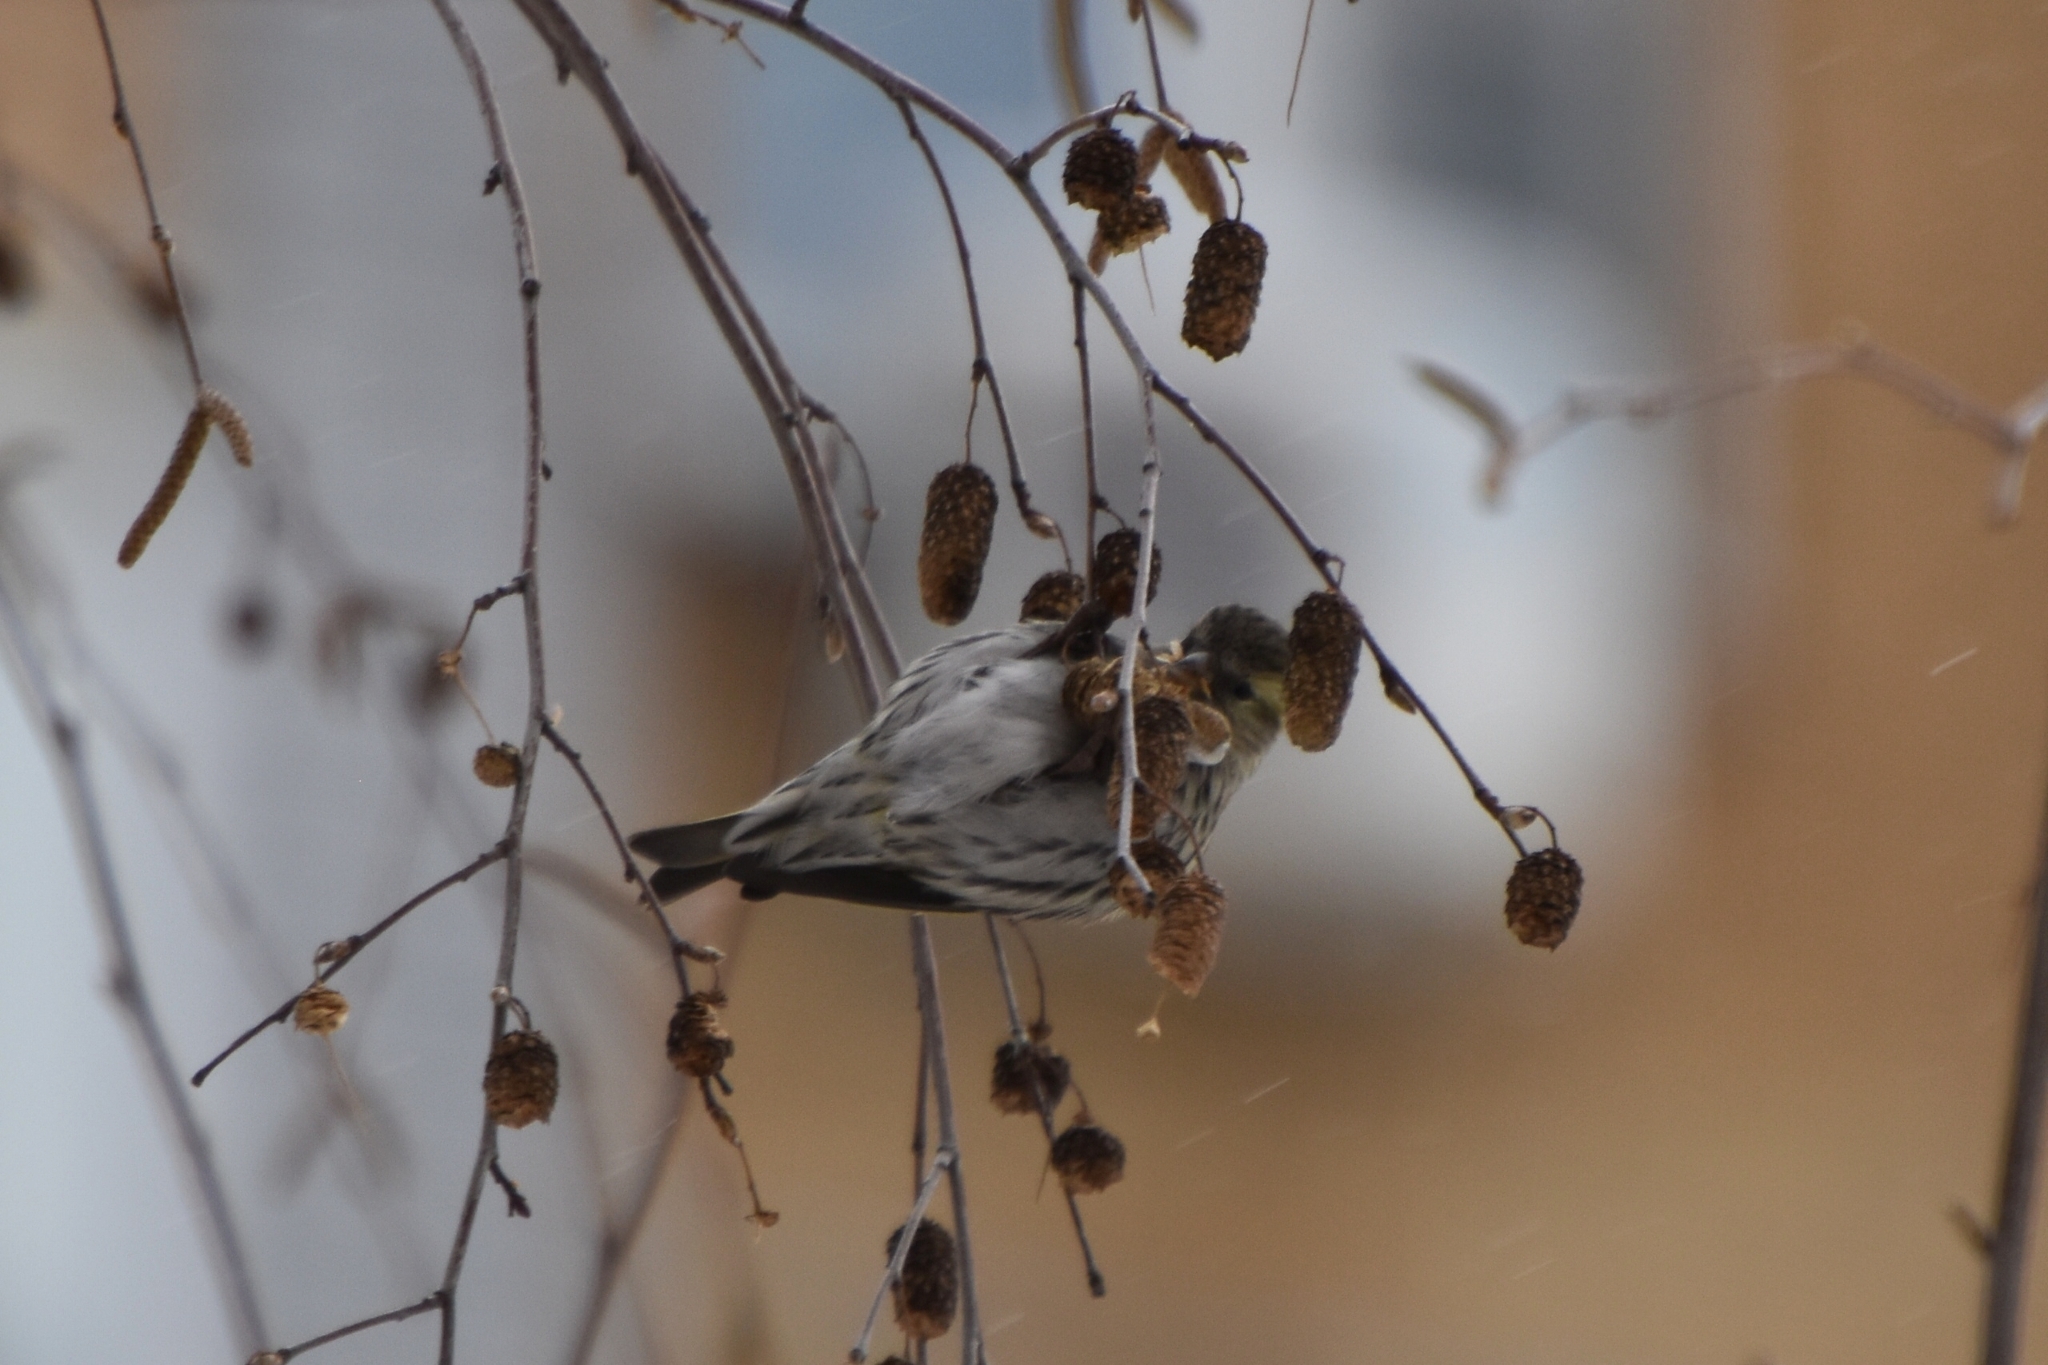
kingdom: Animalia
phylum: Chordata
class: Aves
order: Passeriformes
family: Fringillidae
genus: Spinus
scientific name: Spinus spinus
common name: Eurasian siskin
